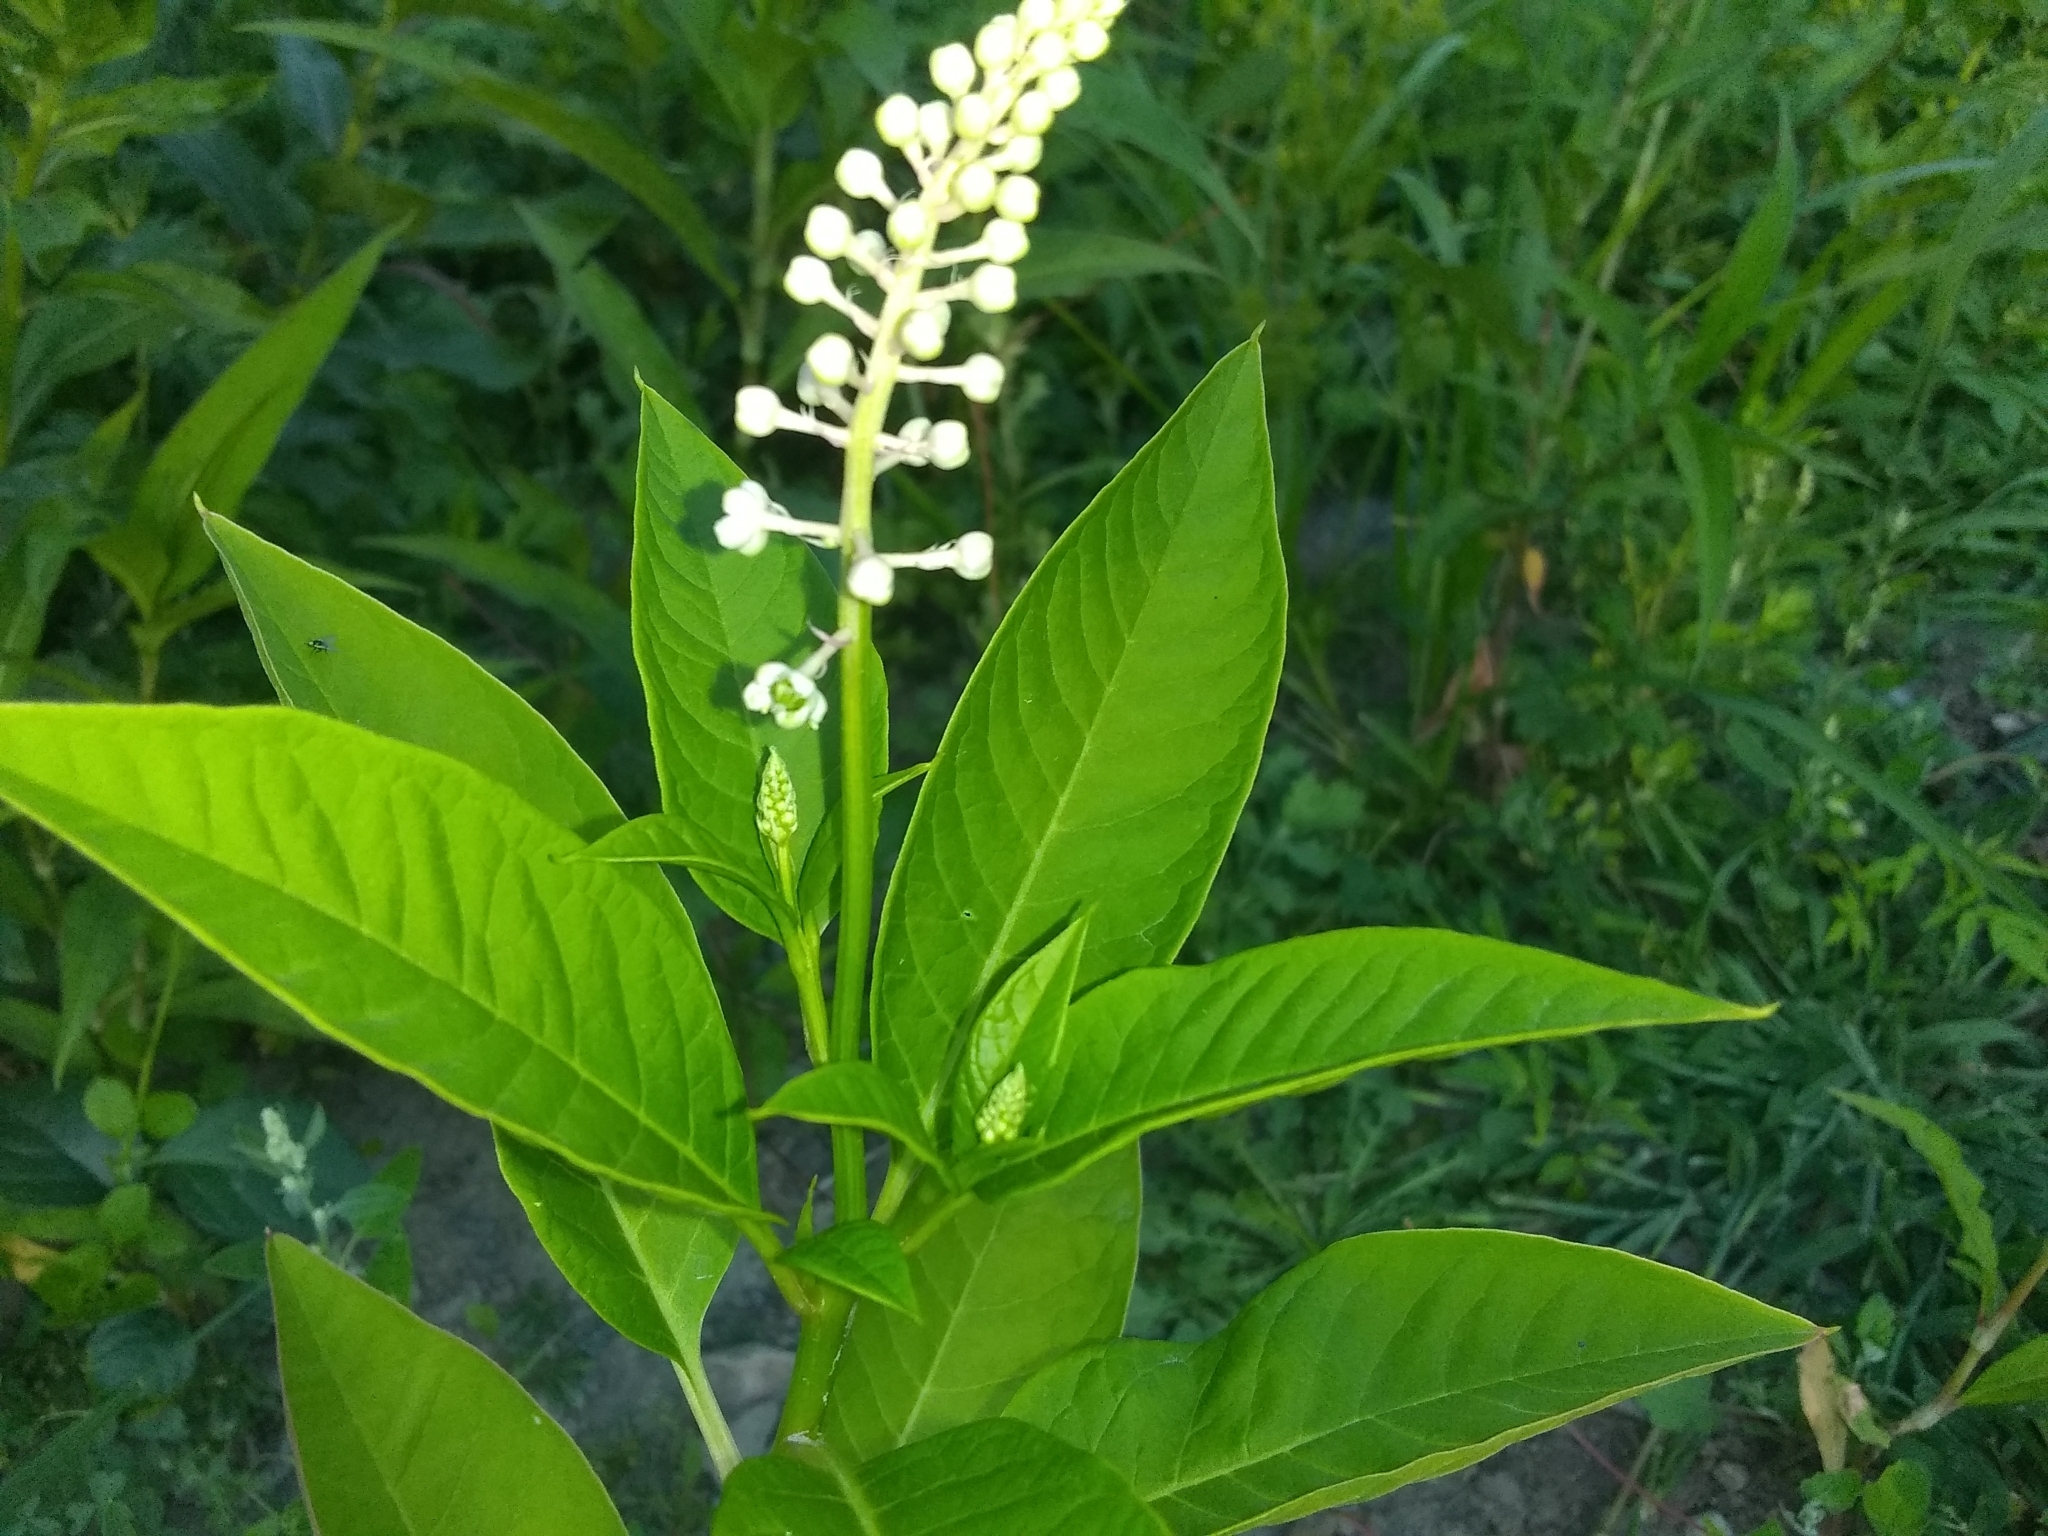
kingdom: Plantae
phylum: Tracheophyta
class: Magnoliopsida
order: Caryophyllales
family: Phytolaccaceae
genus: Phytolacca
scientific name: Phytolacca americana
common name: American pokeweed
